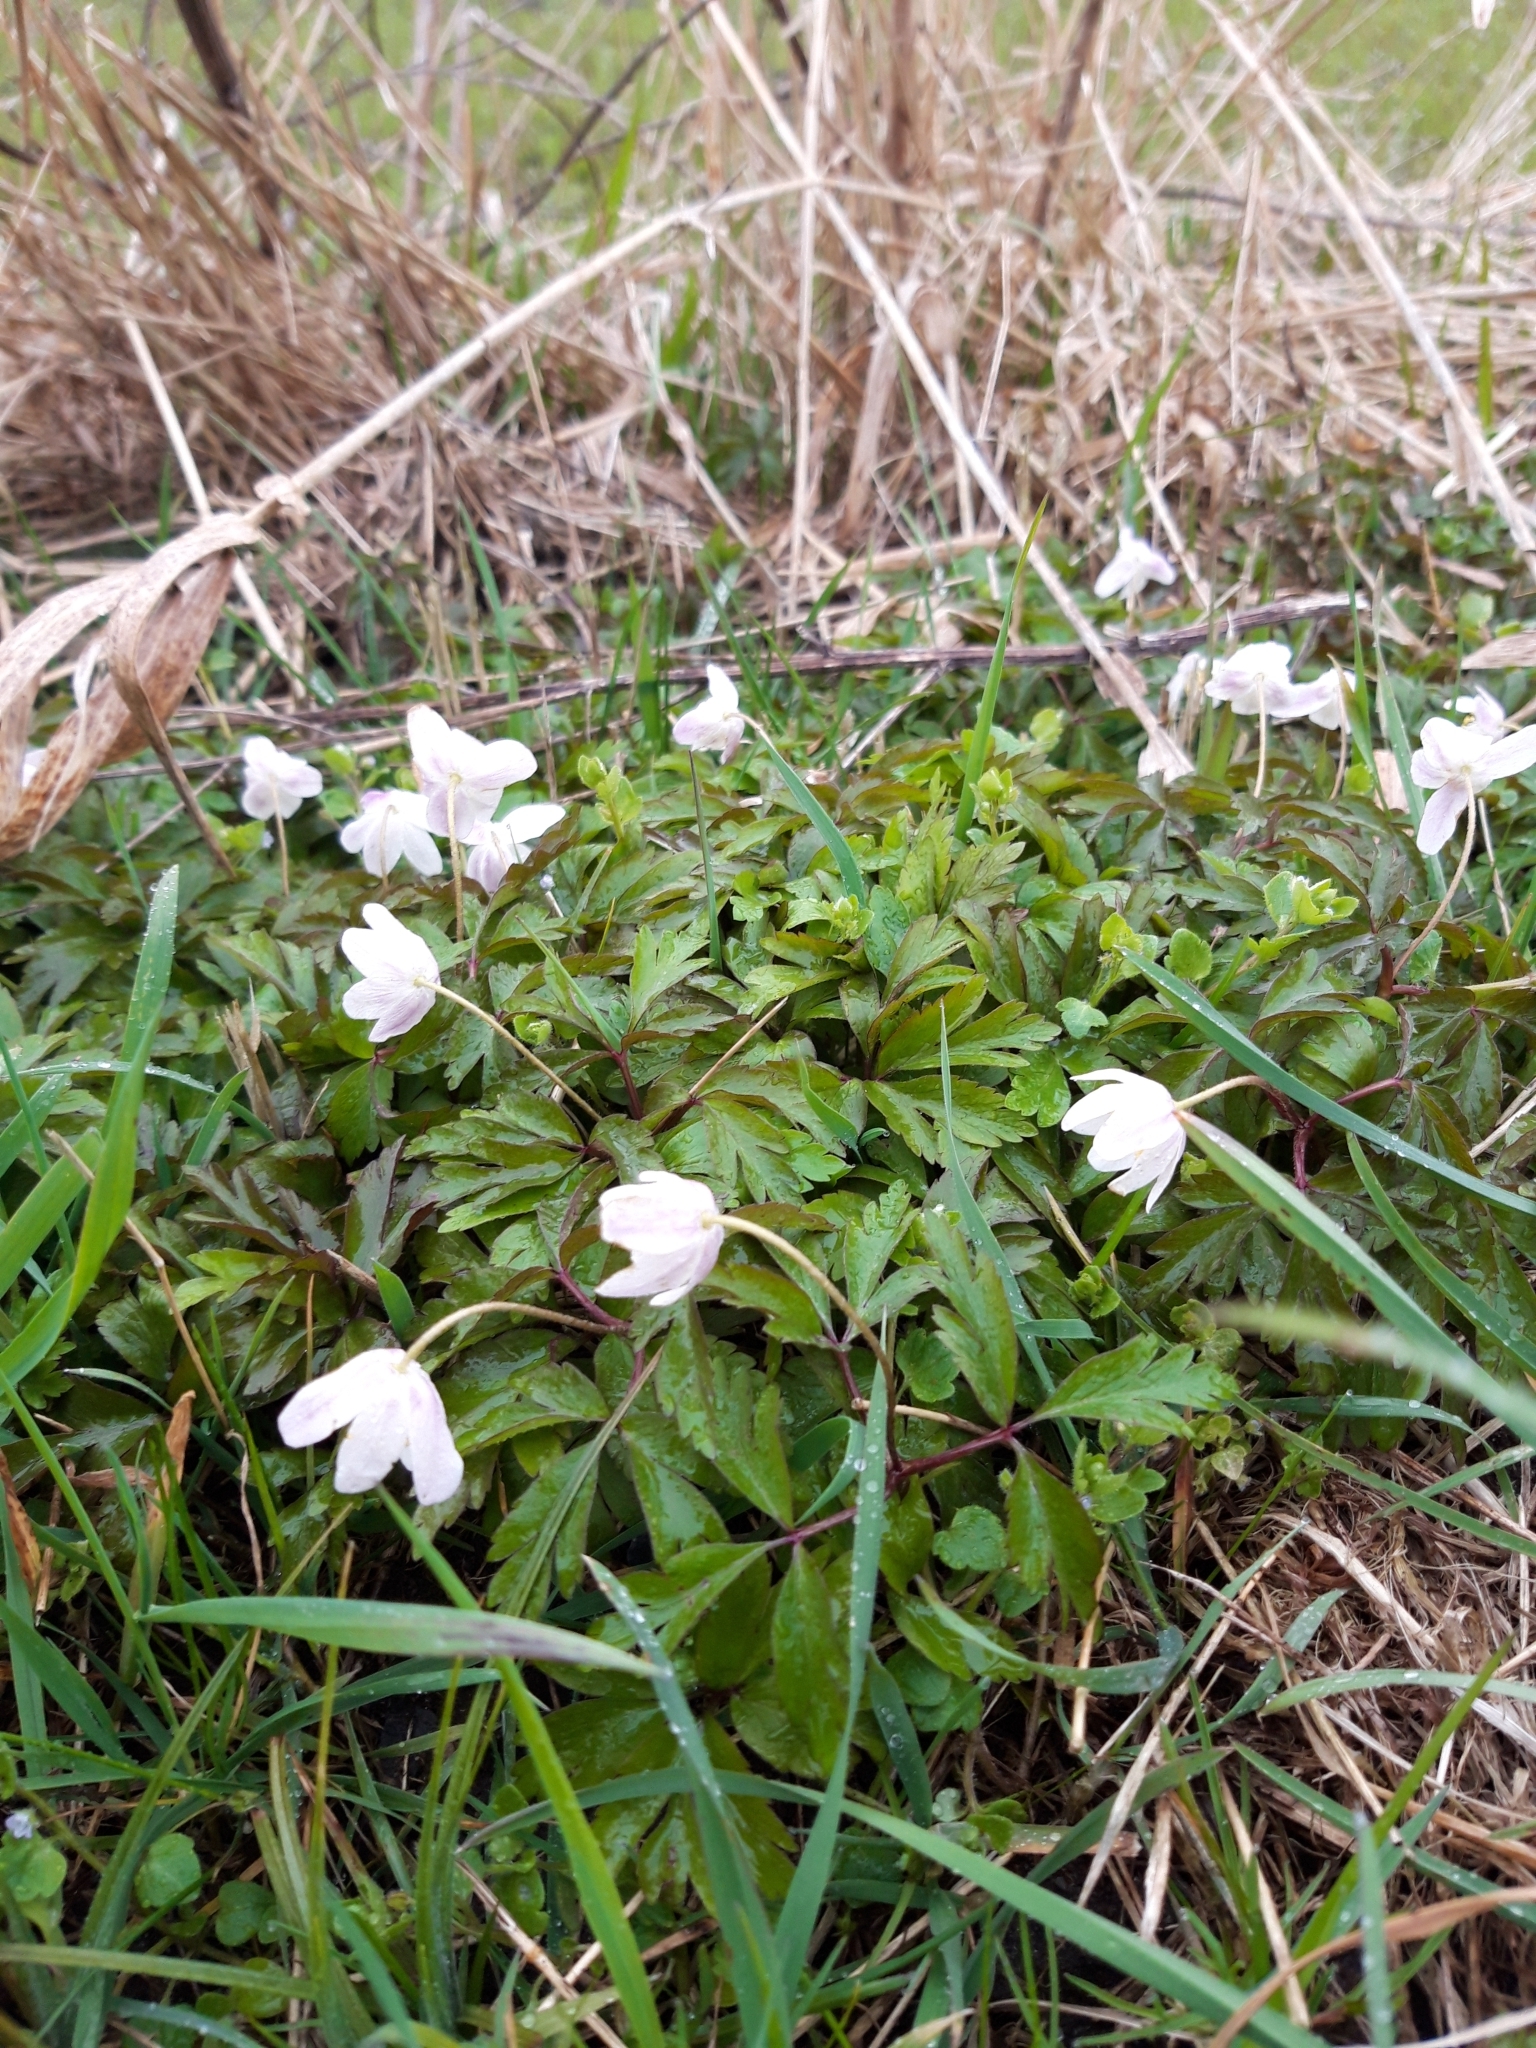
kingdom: Plantae
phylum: Tracheophyta
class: Magnoliopsida
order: Ranunculales
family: Ranunculaceae
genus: Anemone
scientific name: Anemone nemorosa
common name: Wood anemone
